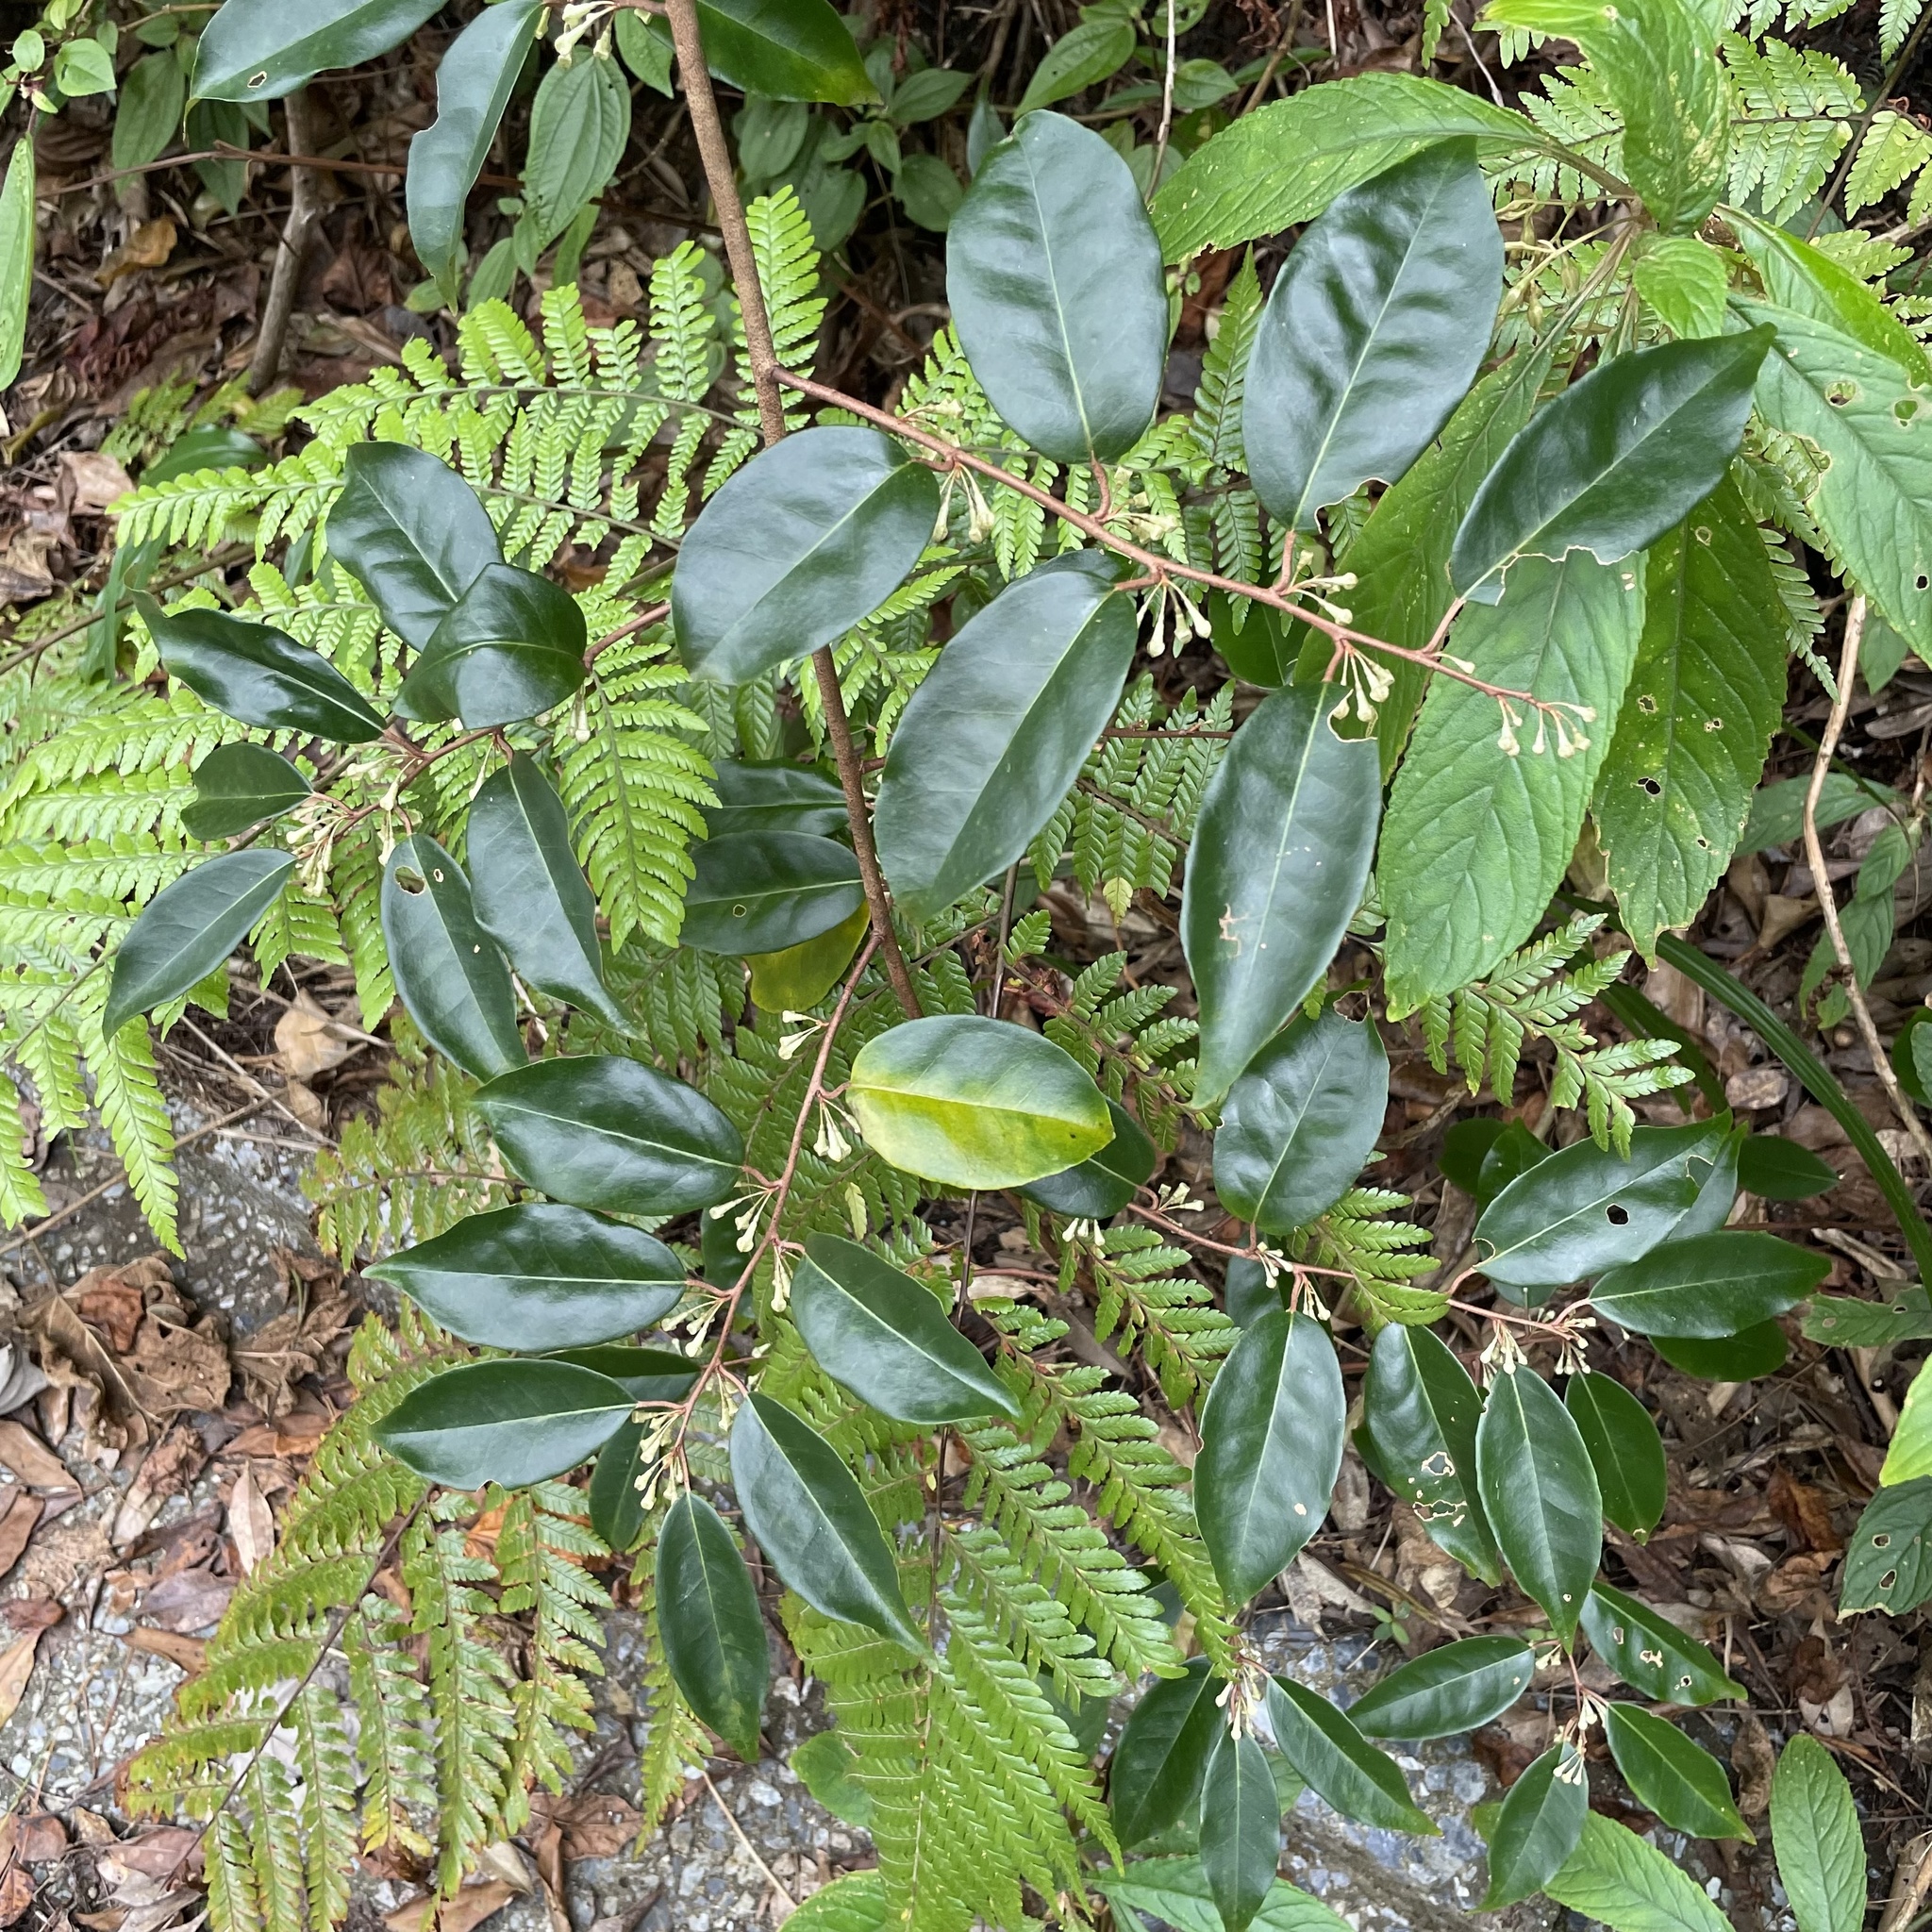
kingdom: Plantae
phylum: Tracheophyta
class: Magnoliopsida
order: Rosales
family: Elaeagnaceae
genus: Elaeagnus
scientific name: Elaeagnus glabra
